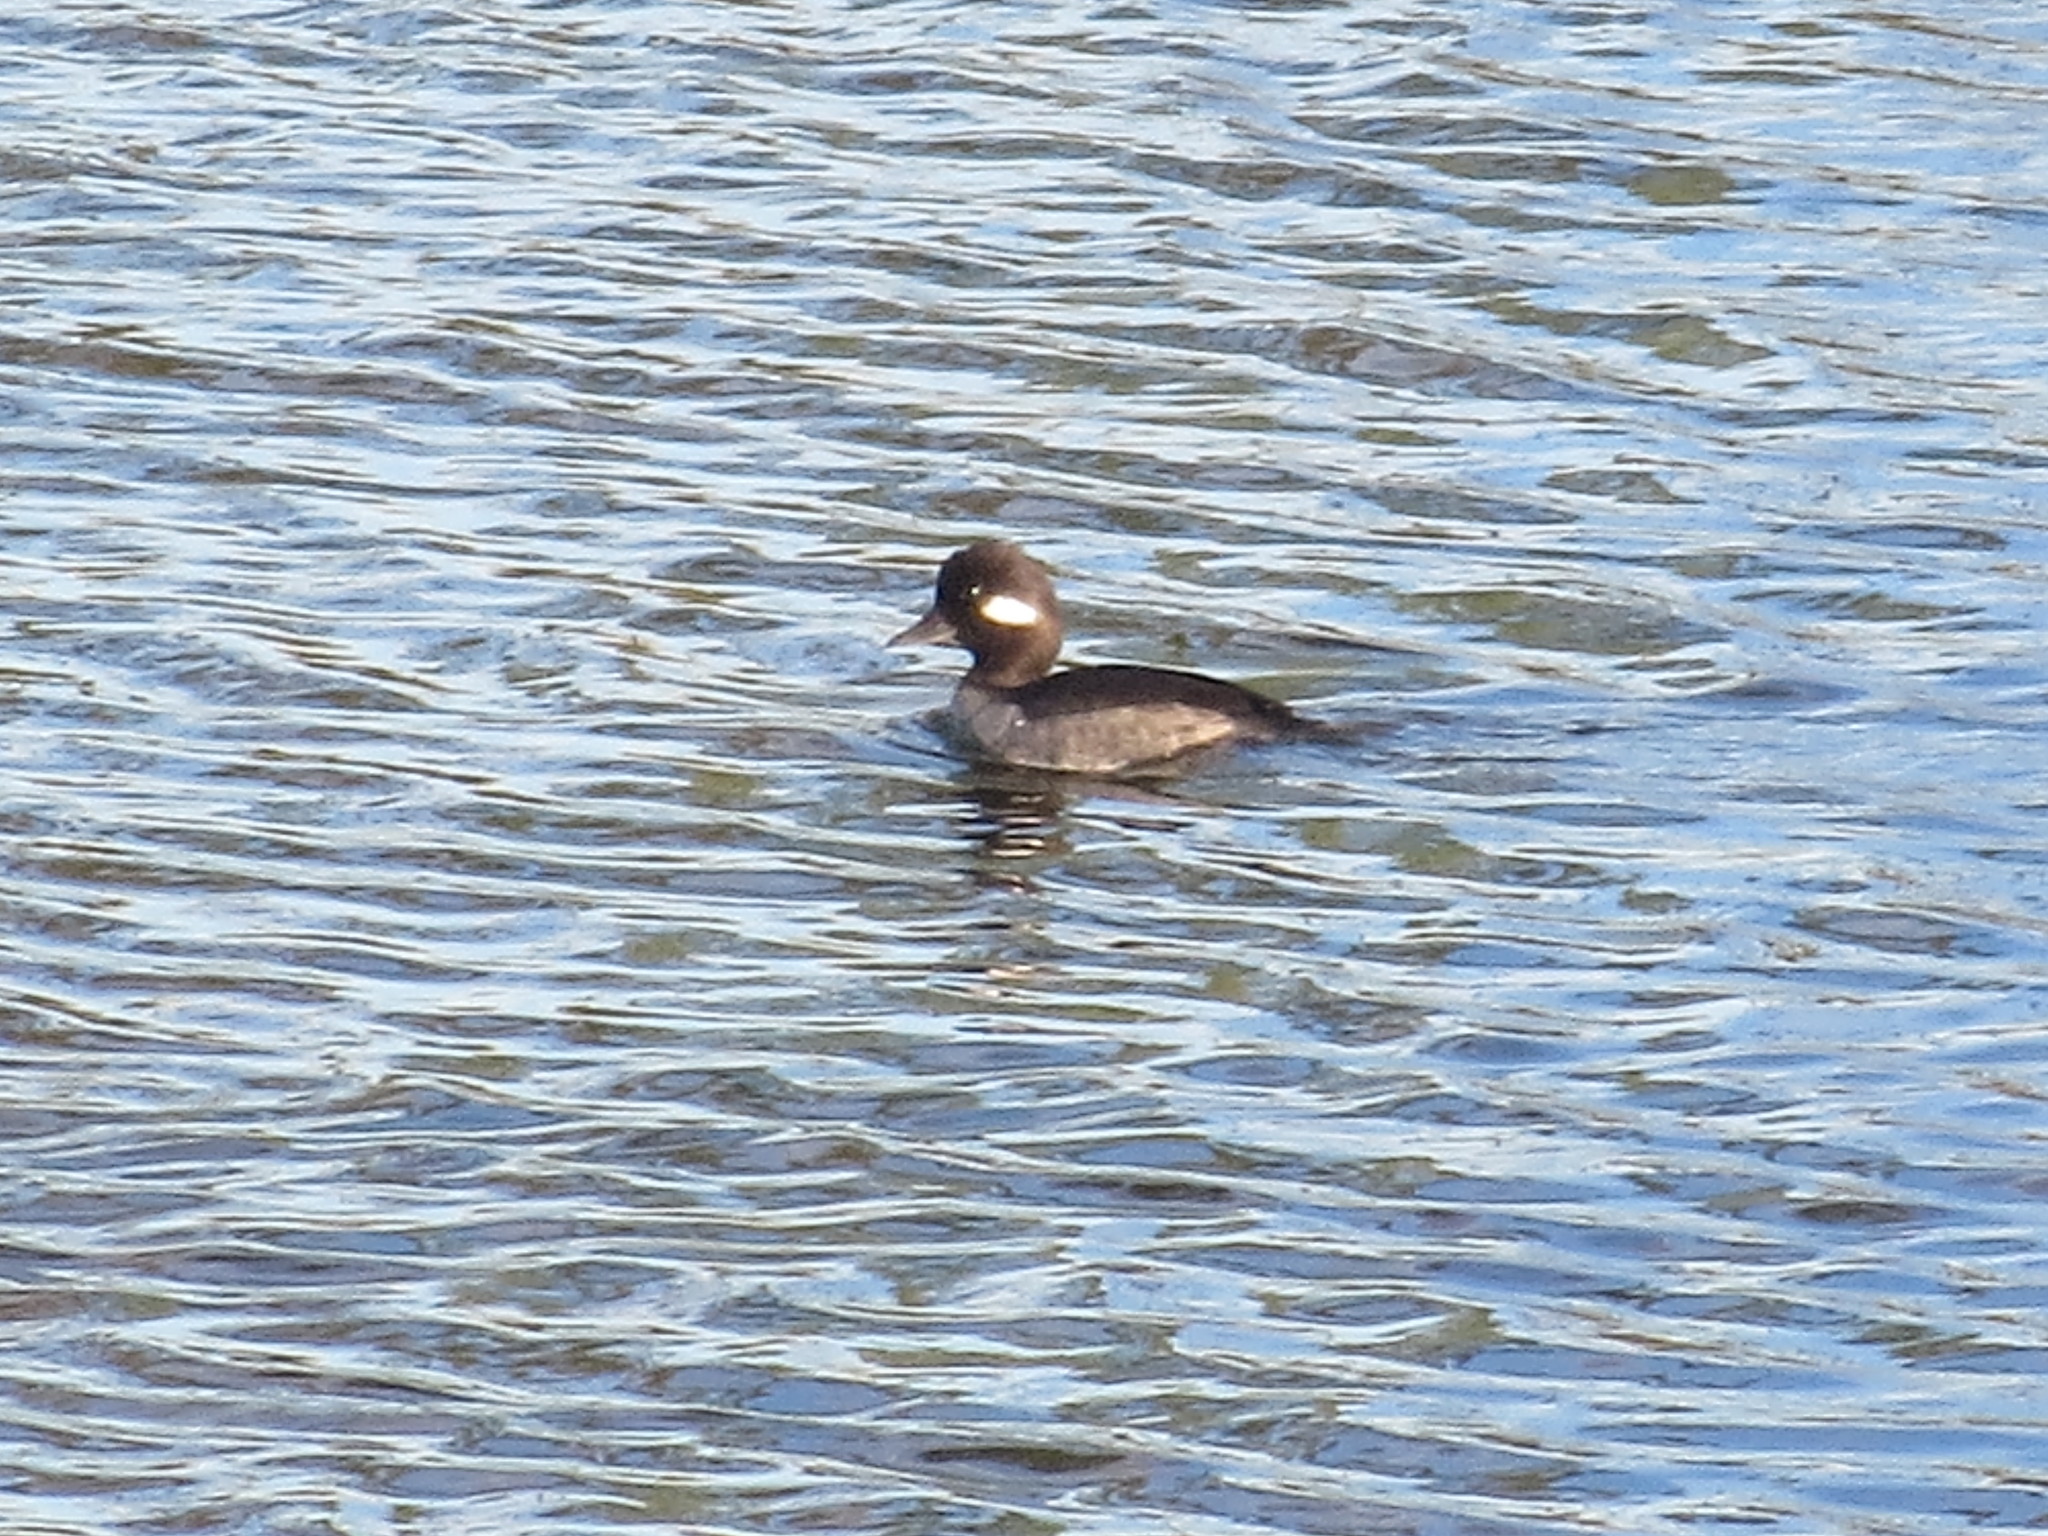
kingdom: Animalia
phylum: Chordata
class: Aves
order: Anseriformes
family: Anatidae
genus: Bucephala
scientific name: Bucephala albeola
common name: Bufflehead
